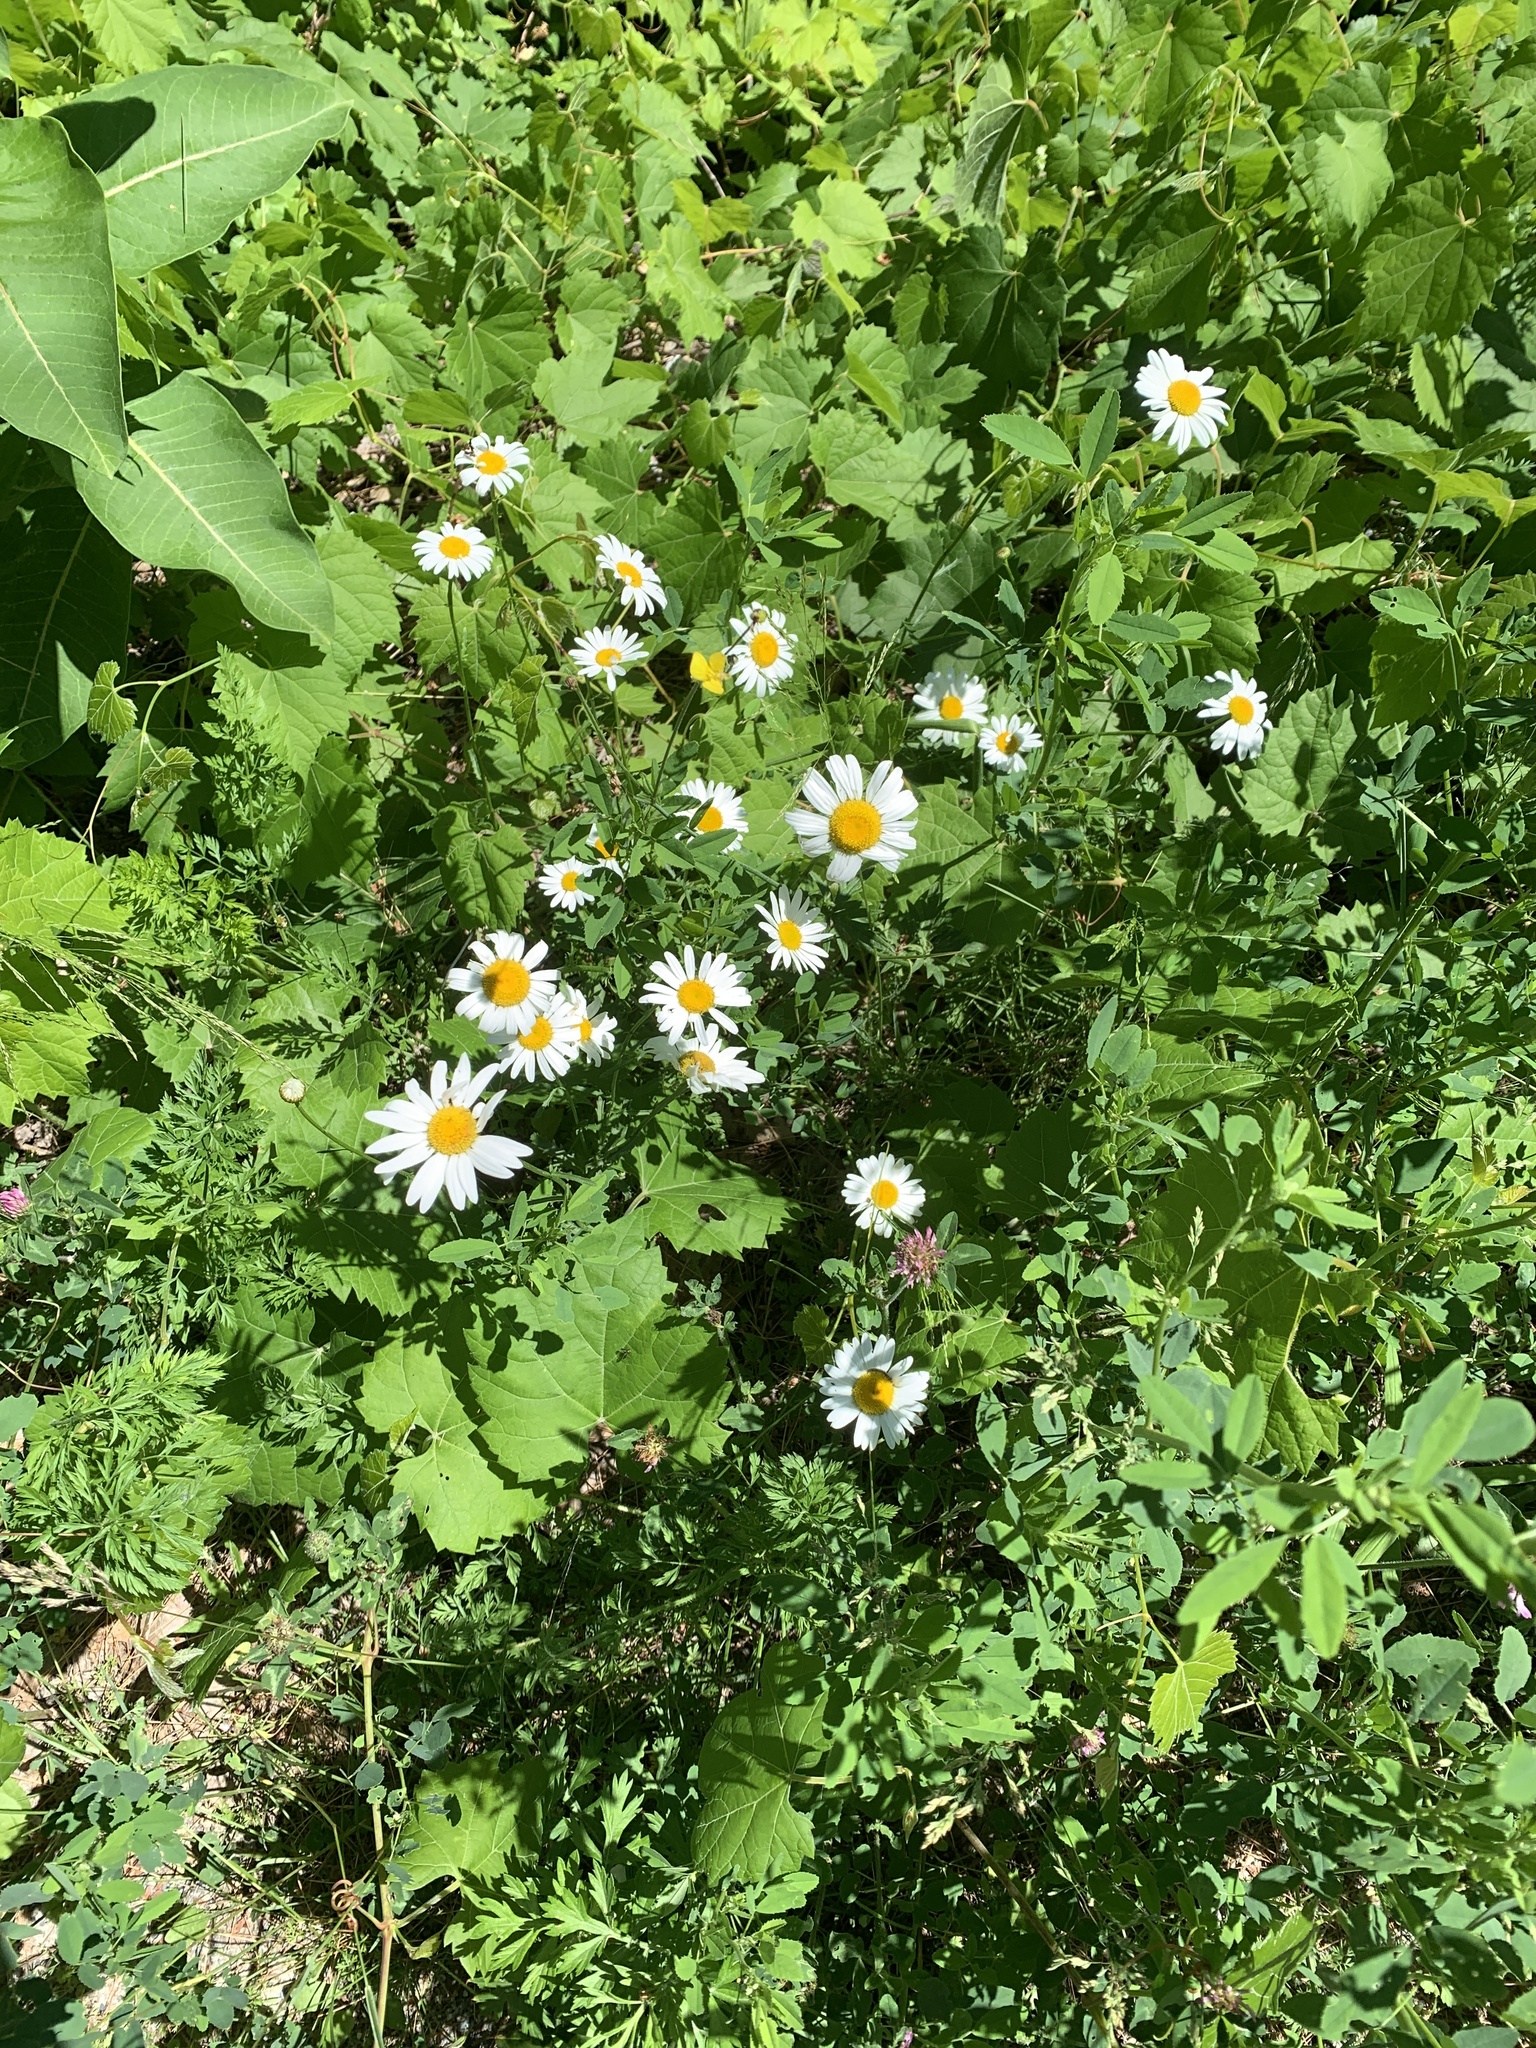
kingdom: Plantae
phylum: Tracheophyta
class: Magnoliopsida
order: Asterales
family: Asteraceae
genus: Leucanthemum
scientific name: Leucanthemum vulgare
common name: Oxeye daisy
